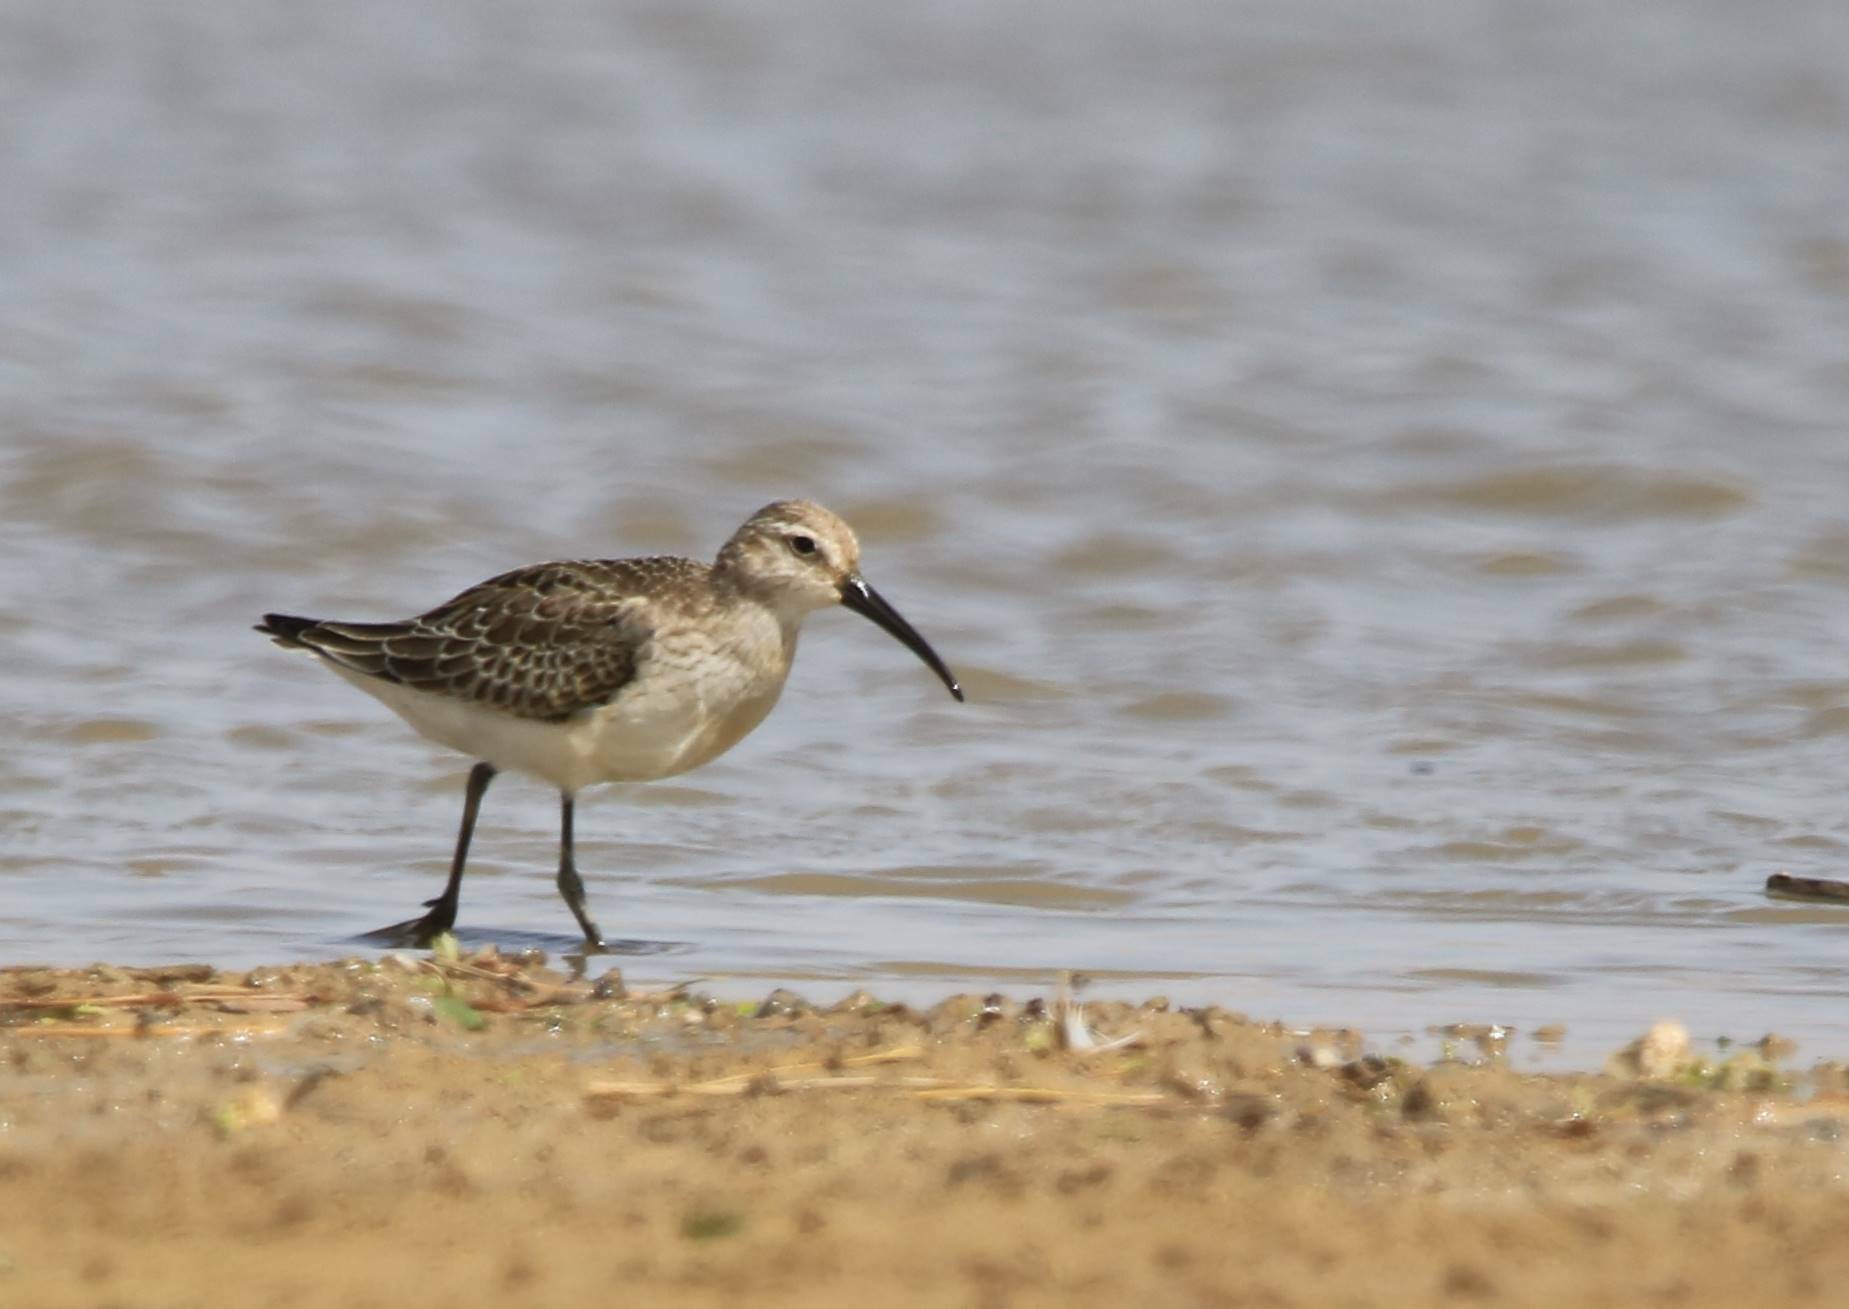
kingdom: Animalia
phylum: Chordata
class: Aves
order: Charadriiformes
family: Scolopacidae
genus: Calidris
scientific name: Calidris ferruginea
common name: Curlew sandpiper
